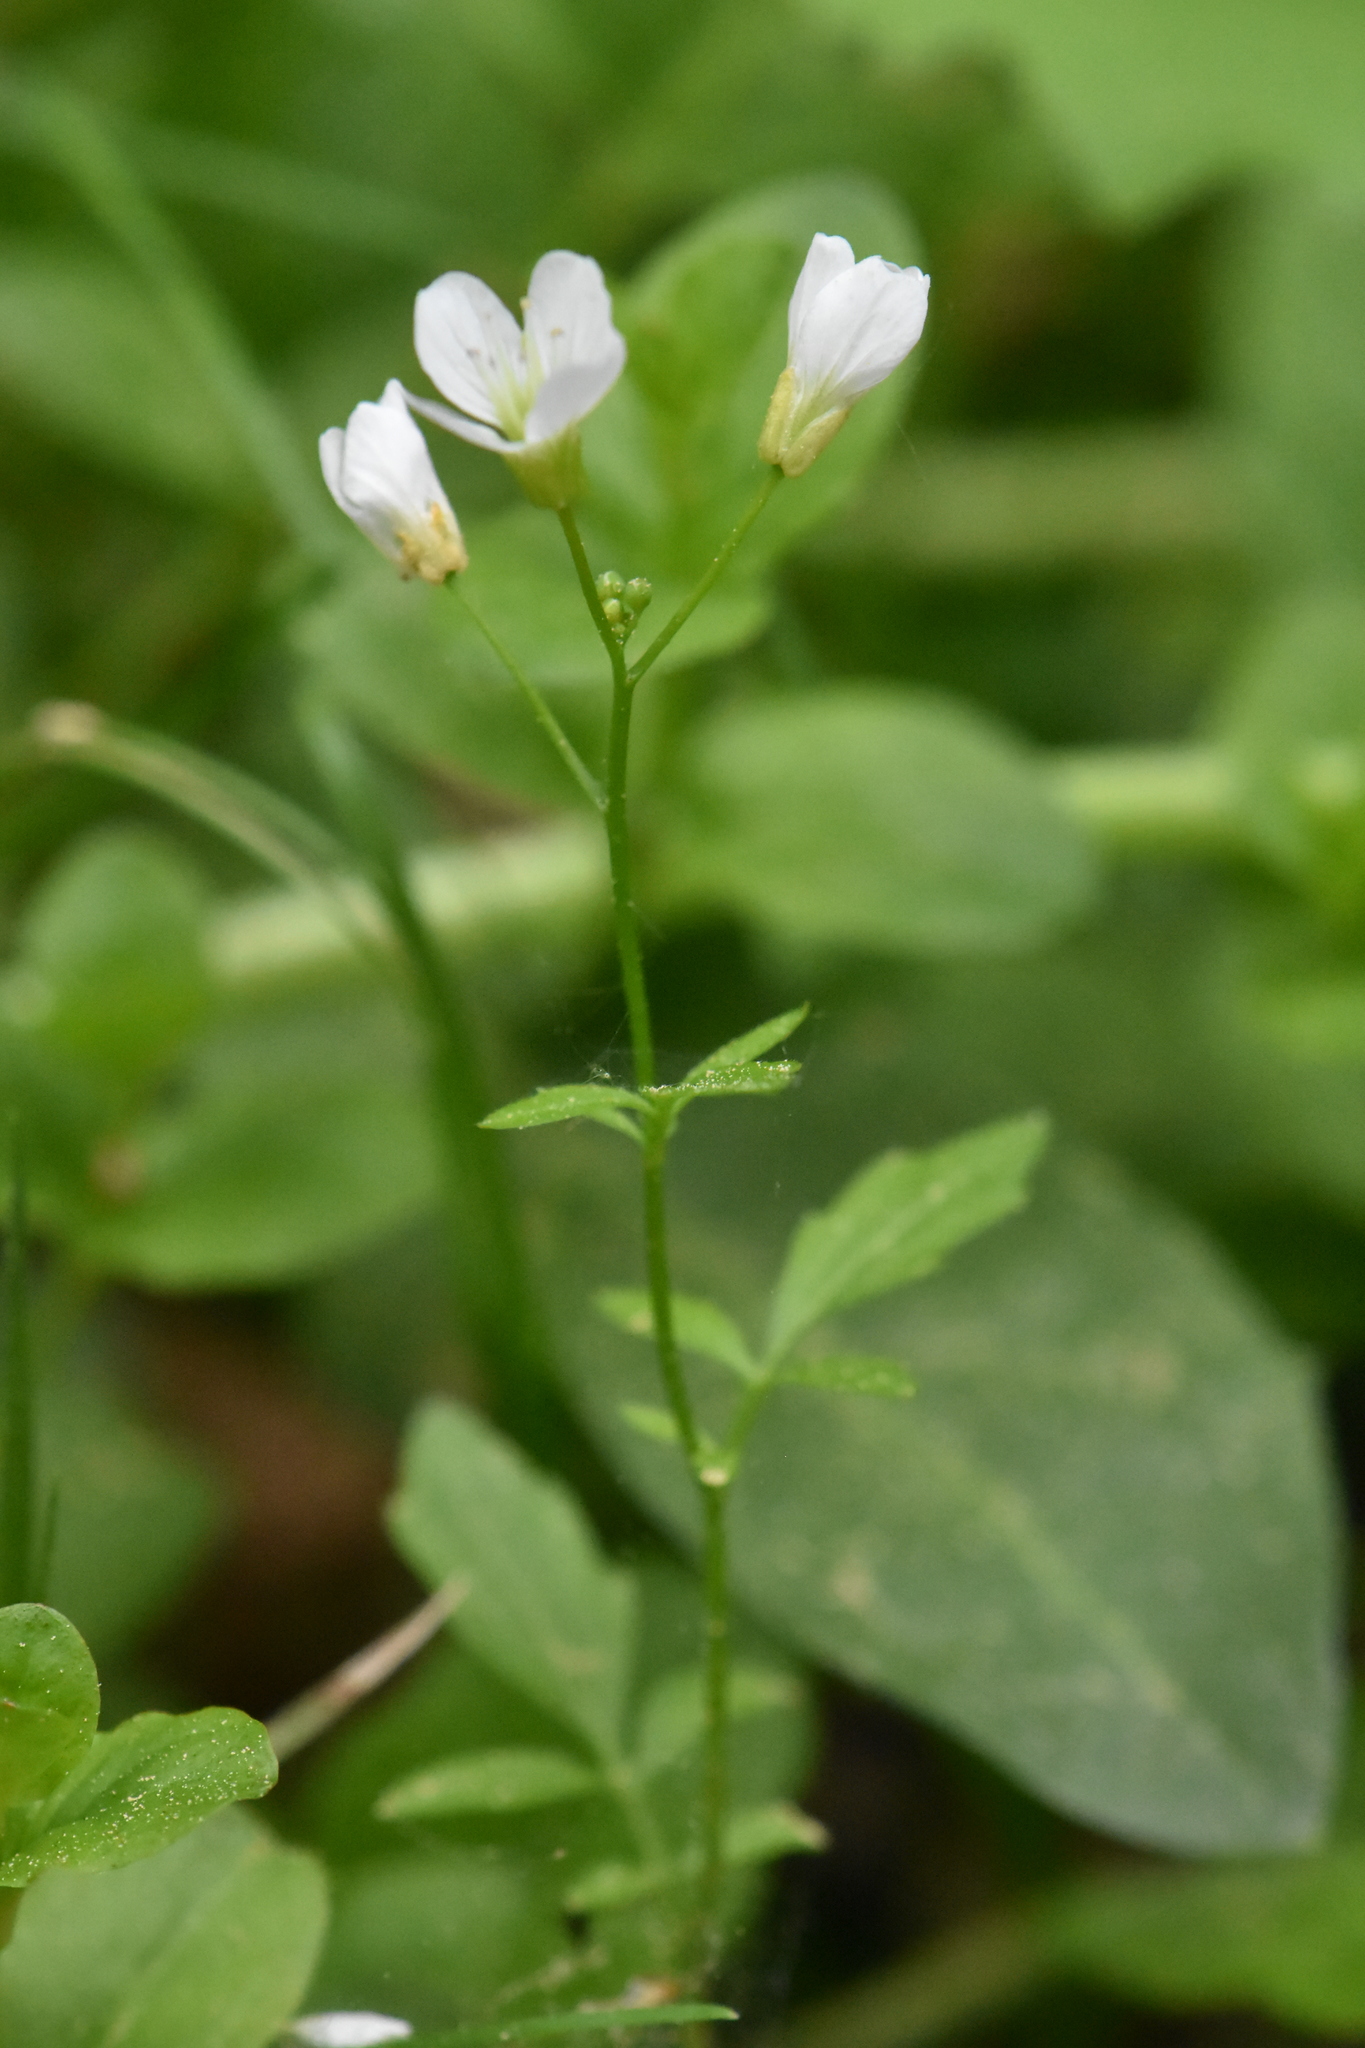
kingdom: Plantae
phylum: Tracheophyta
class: Magnoliopsida
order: Brassicales
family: Brassicaceae
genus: Cardamine
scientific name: Cardamine amara
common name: Large bitter-cress
